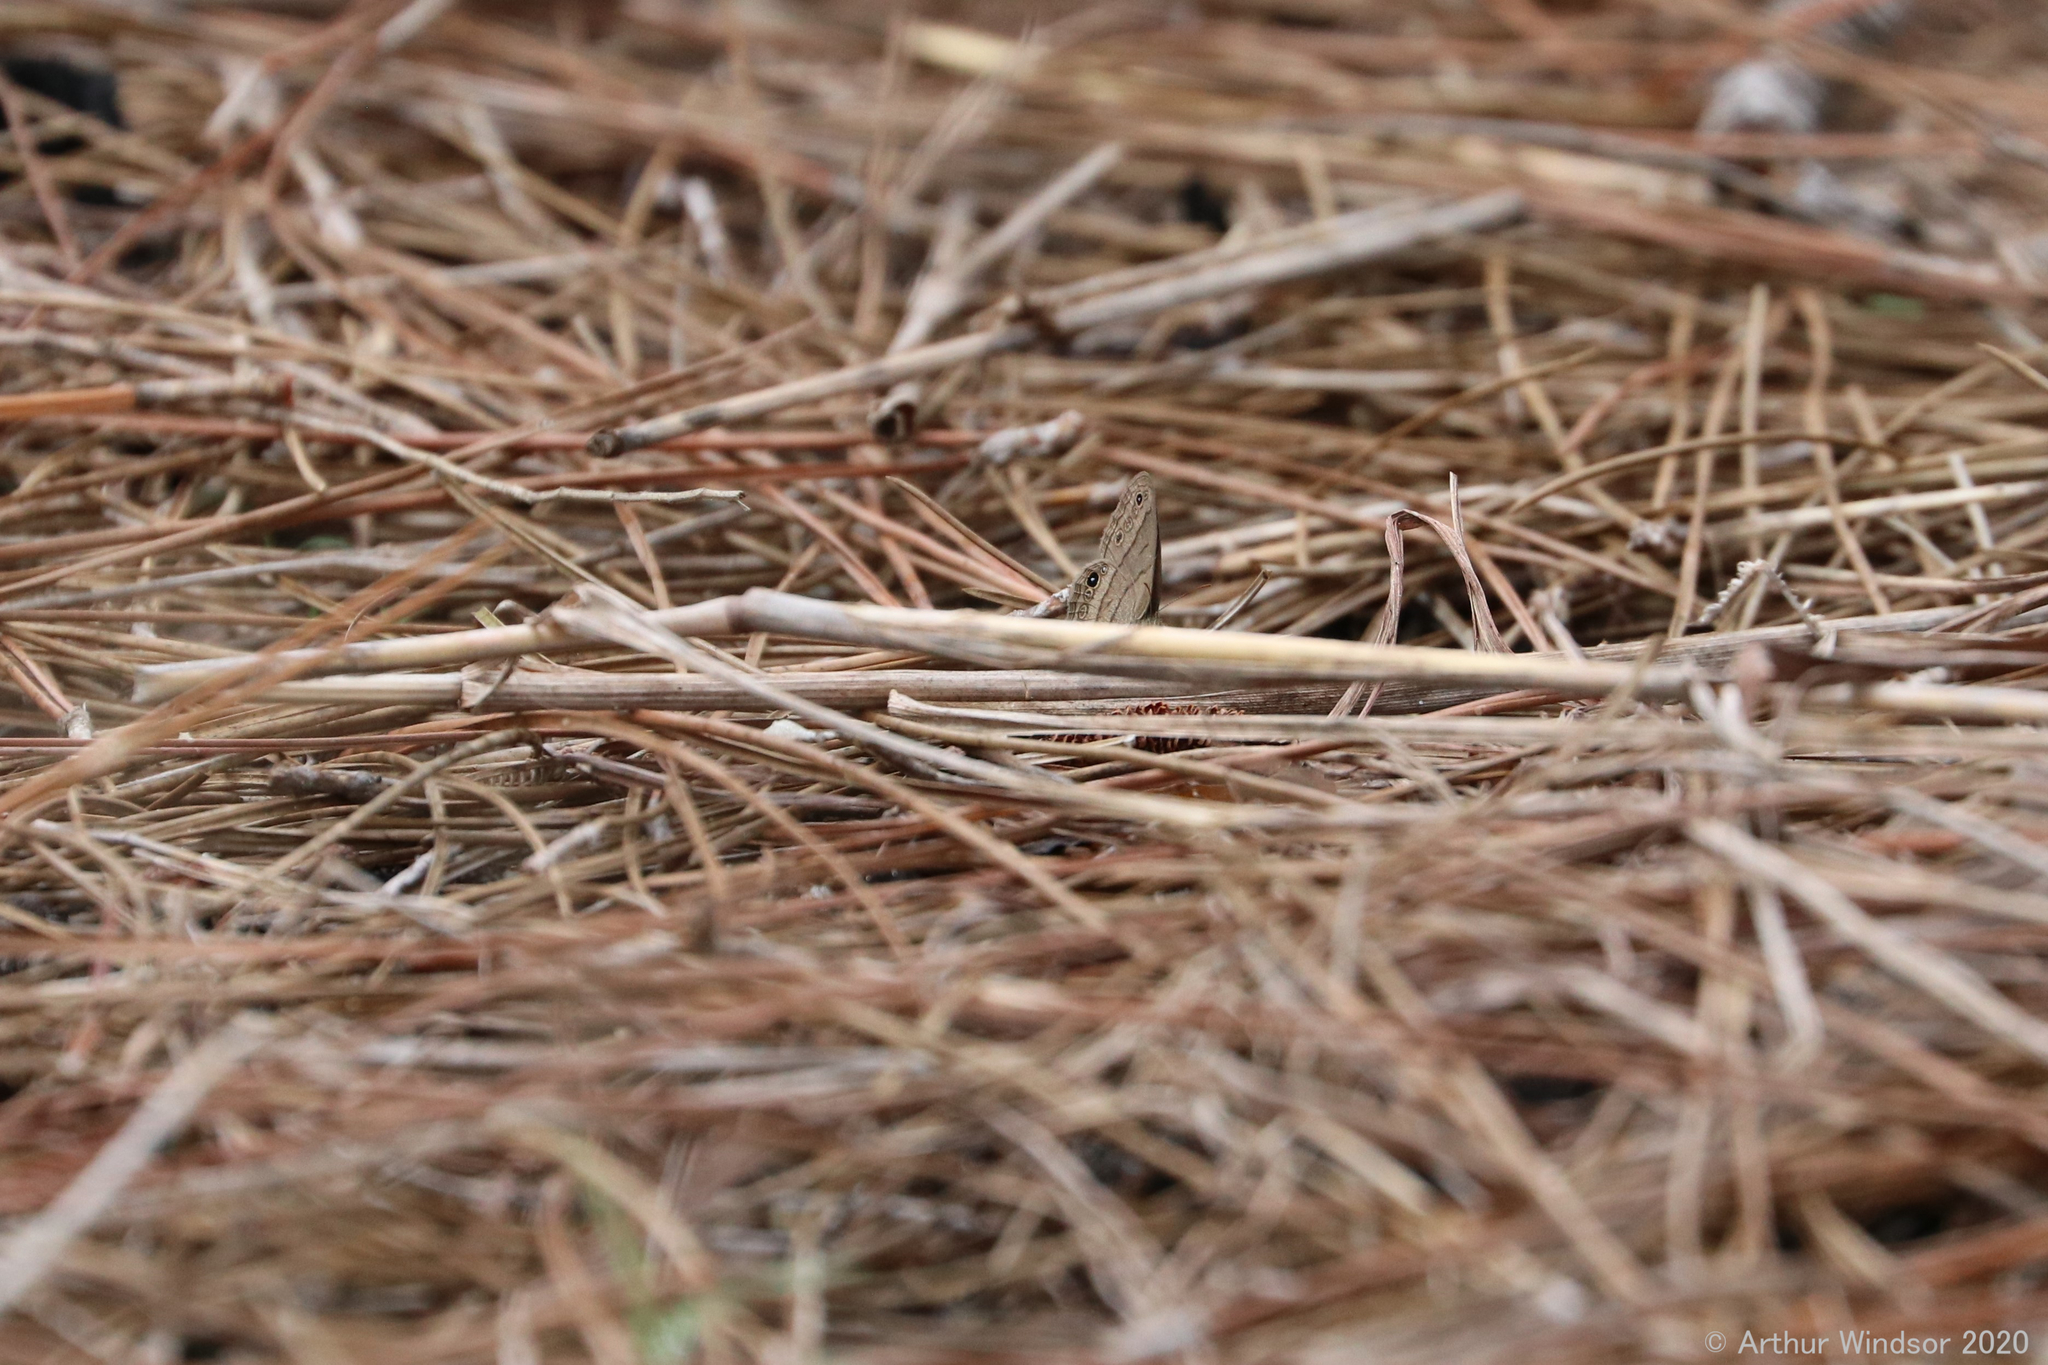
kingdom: Animalia
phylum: Arthropoda
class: Insecta
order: Lepidoptera
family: Nymphalidae
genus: Hermeuptychia
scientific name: Hermeuptychia intricata
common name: Intricate satyr
